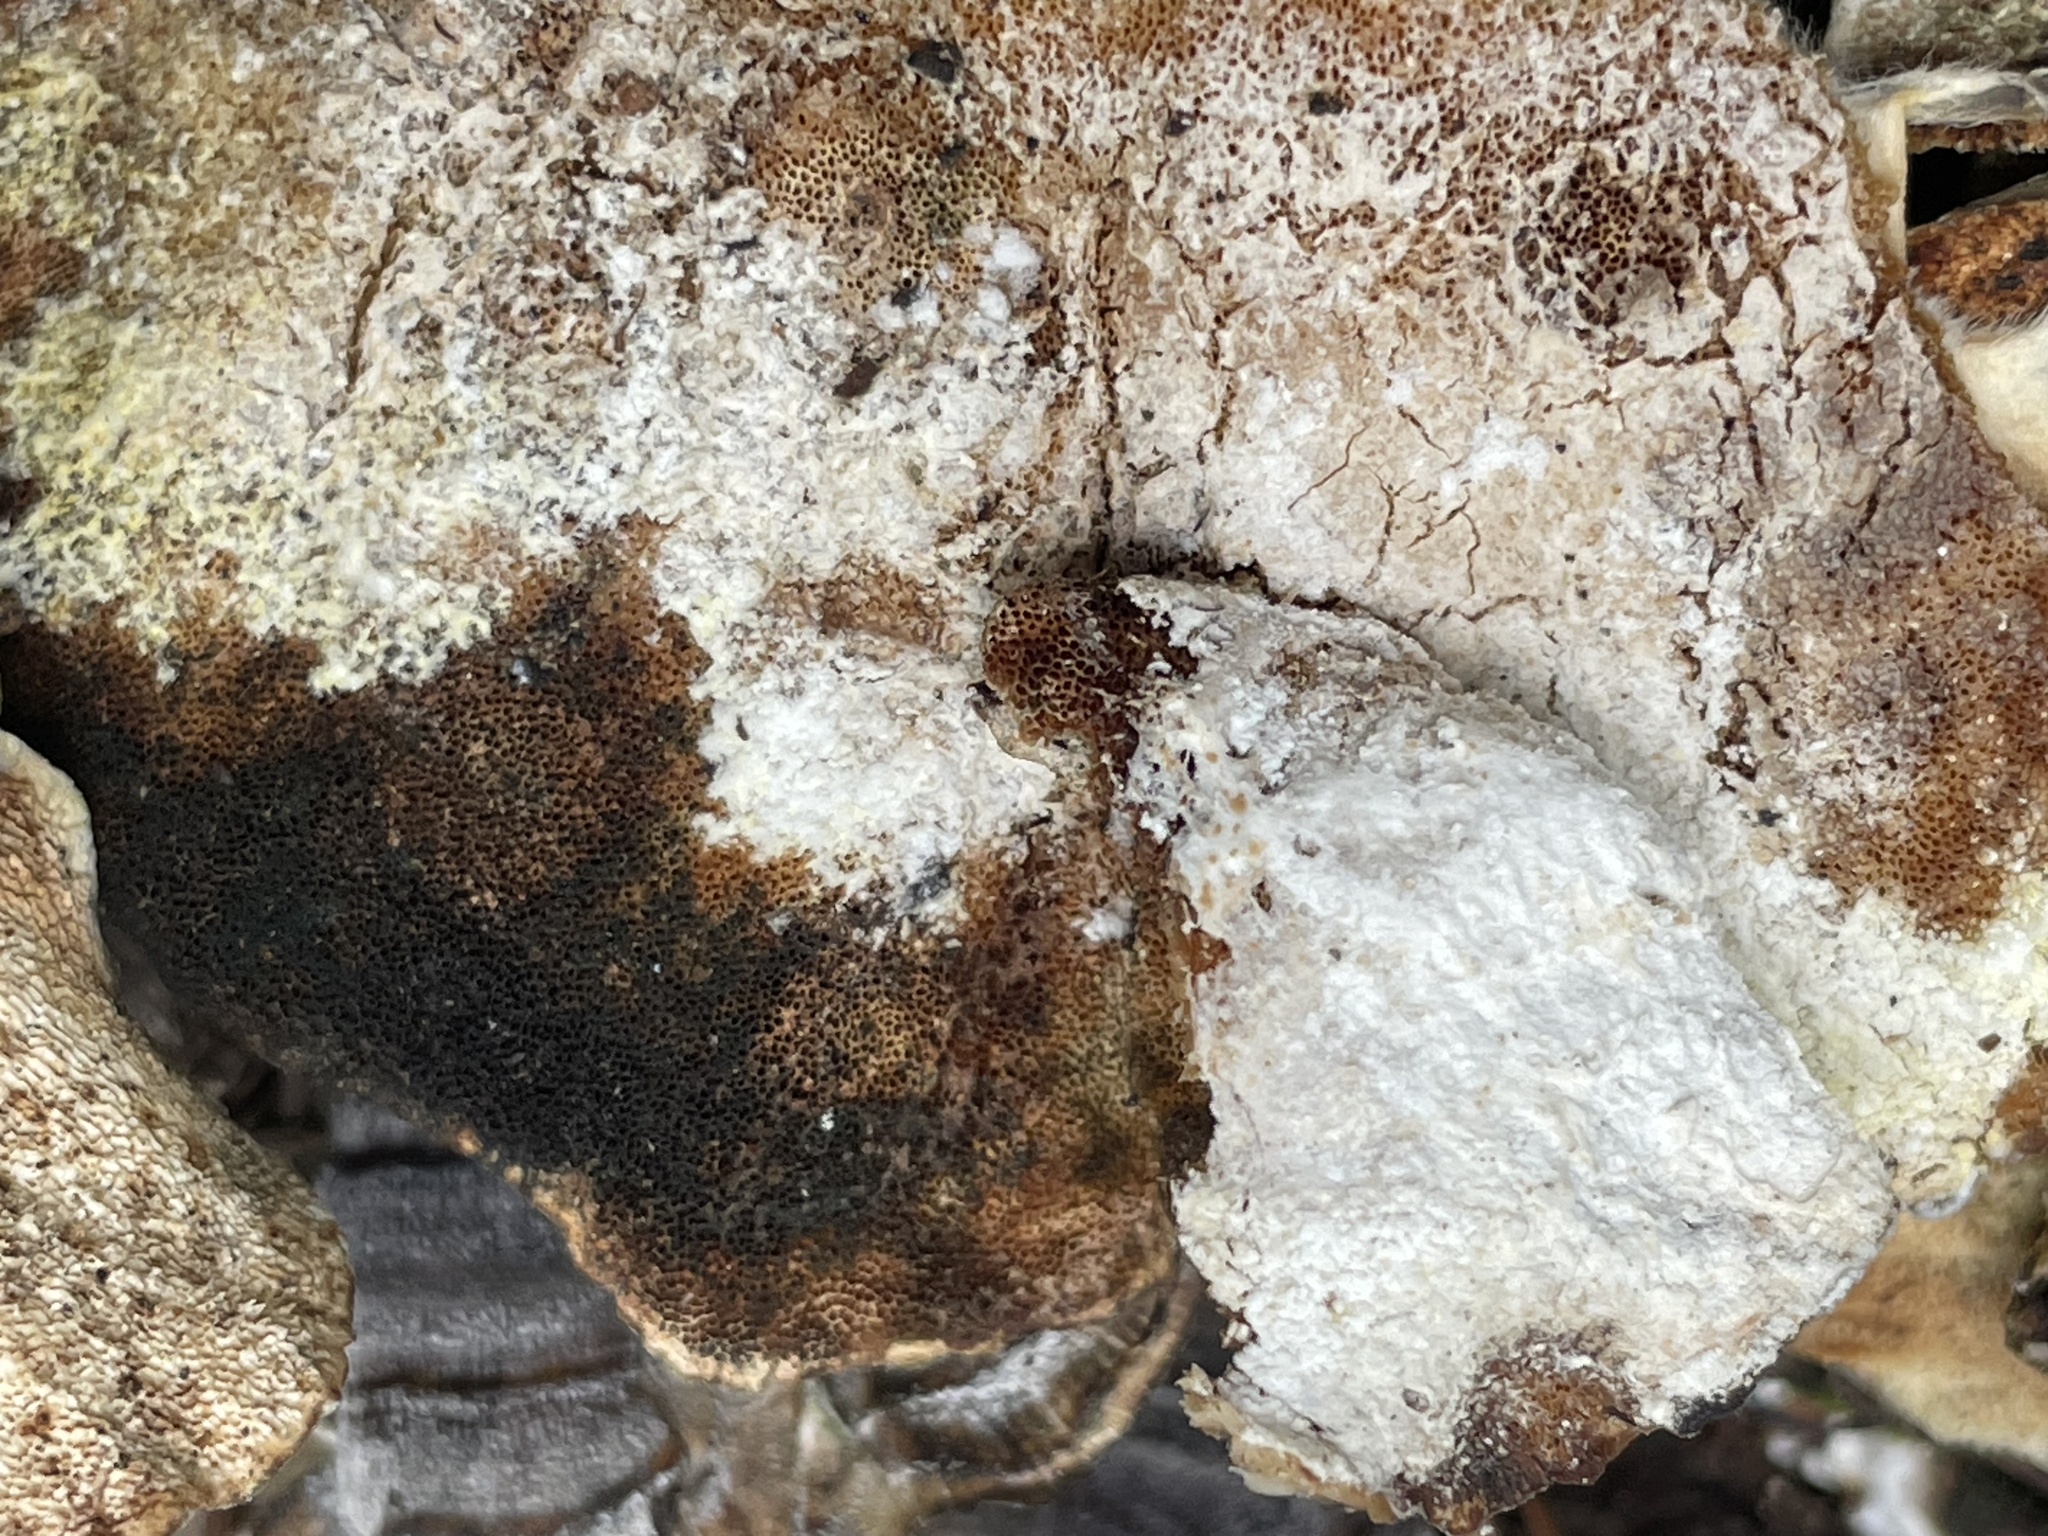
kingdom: Fungi
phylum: Basidiomycota
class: Agaricomycetes
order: Polyporales
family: Polyporaceae
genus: Trametes
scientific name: Trametes versicolor
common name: Turkeytail
